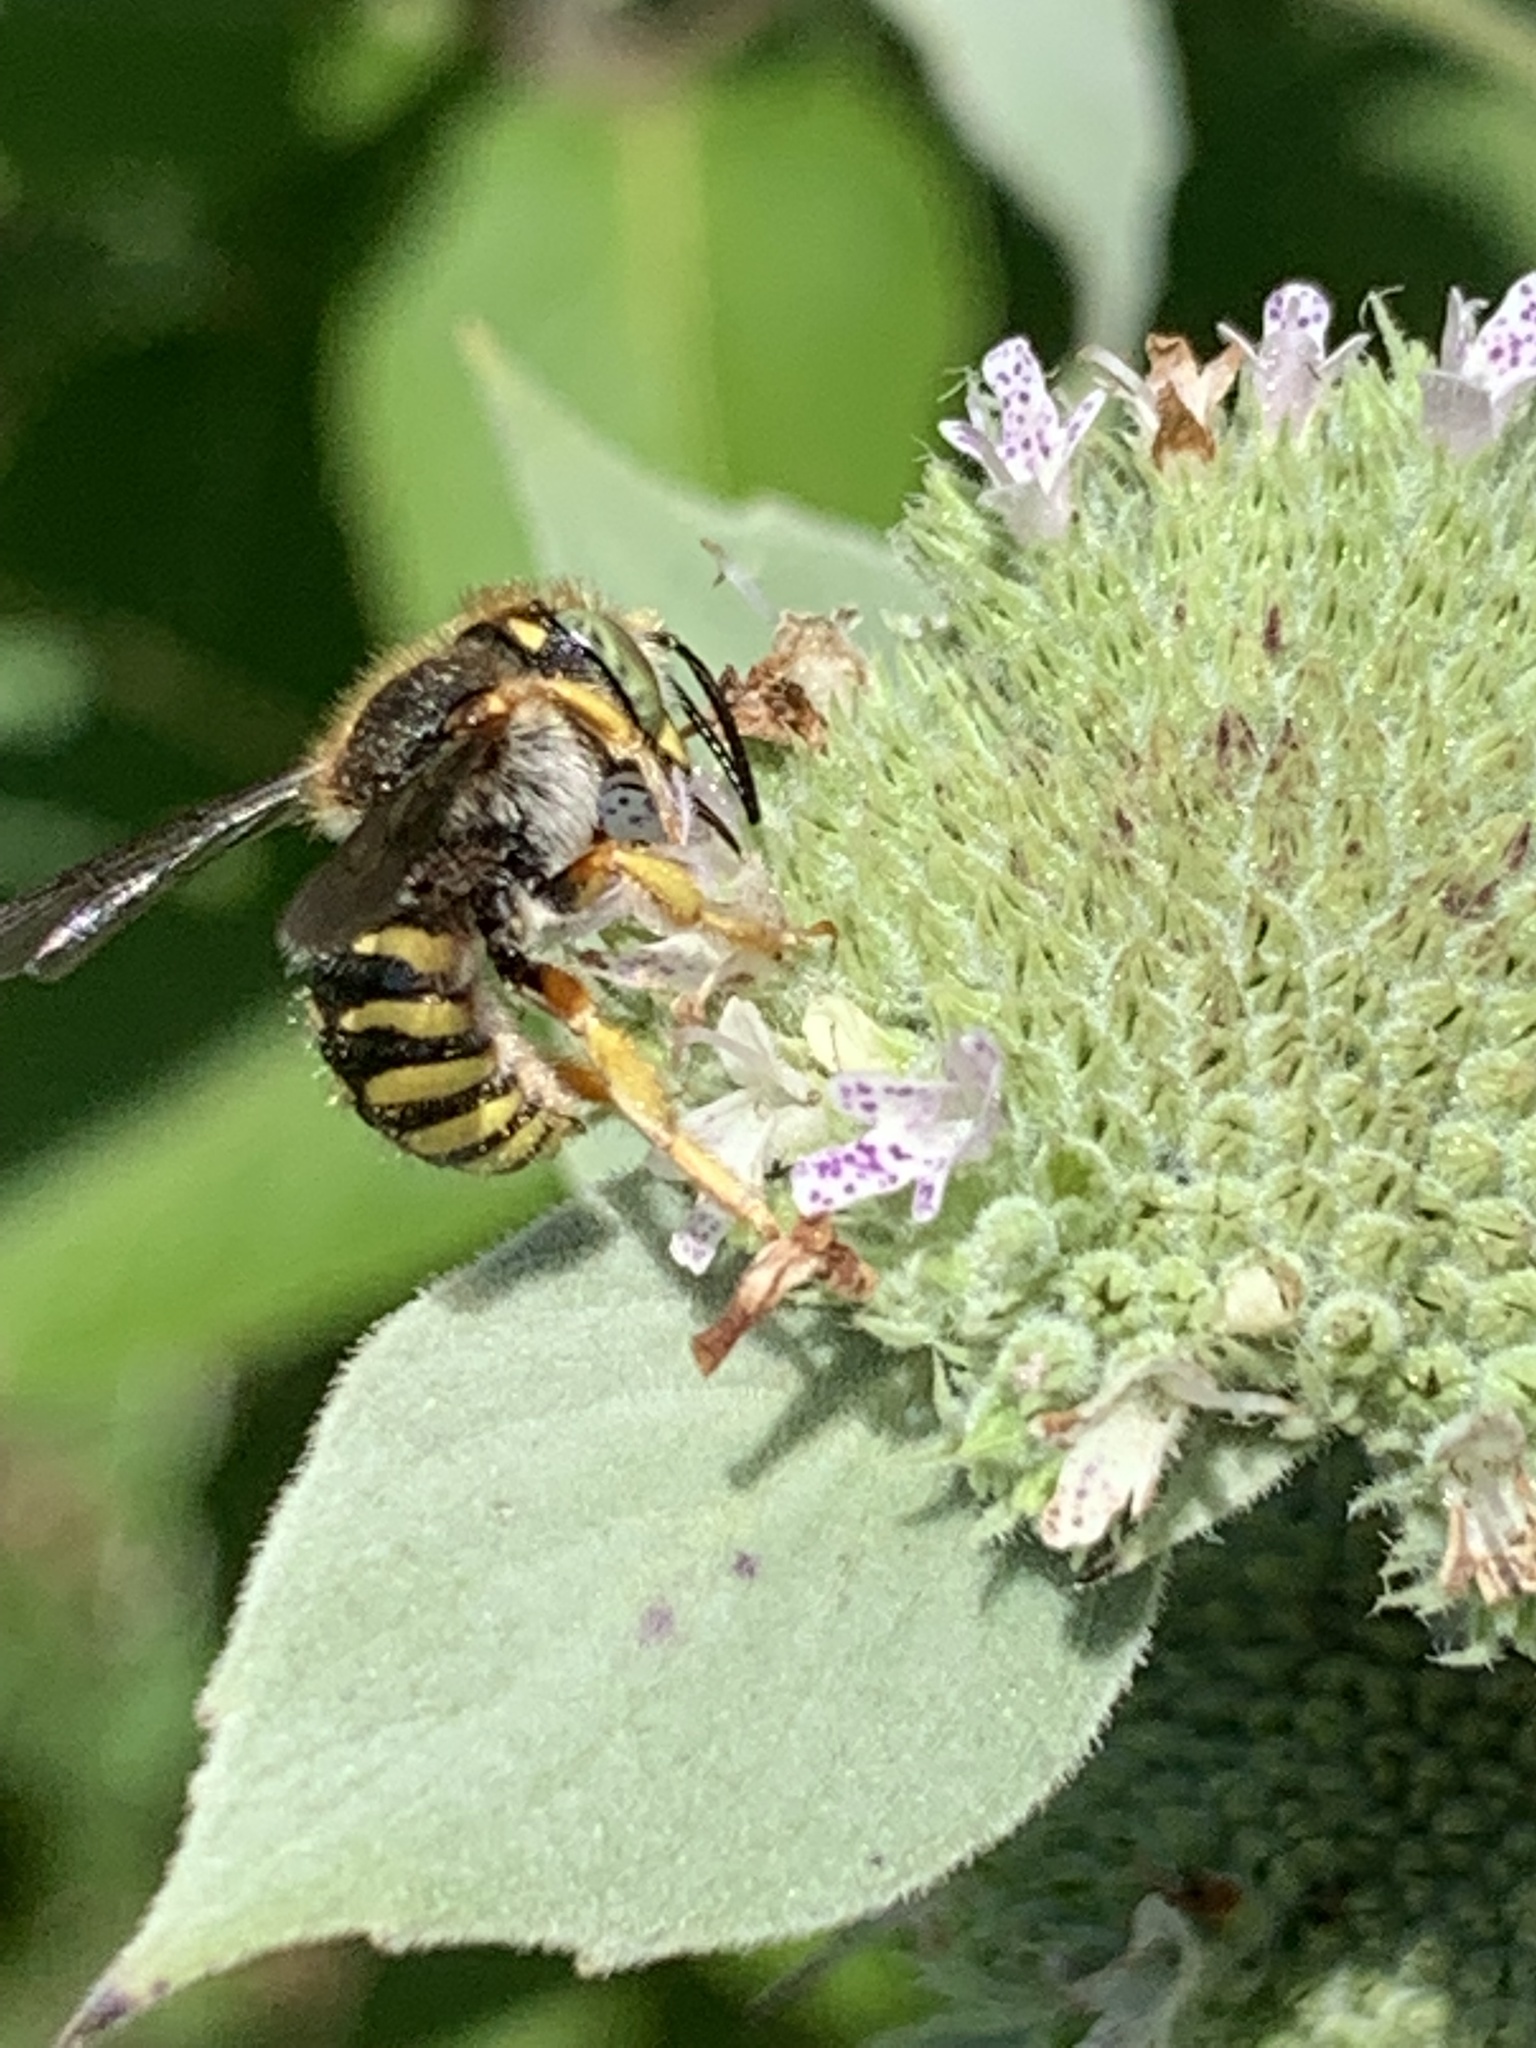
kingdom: Animalia
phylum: Arthropoda
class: Insecta
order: Hymenoptera
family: Megachilidae
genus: Anthidium
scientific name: Anthidium oblongatum
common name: Oblong wool carder bee
